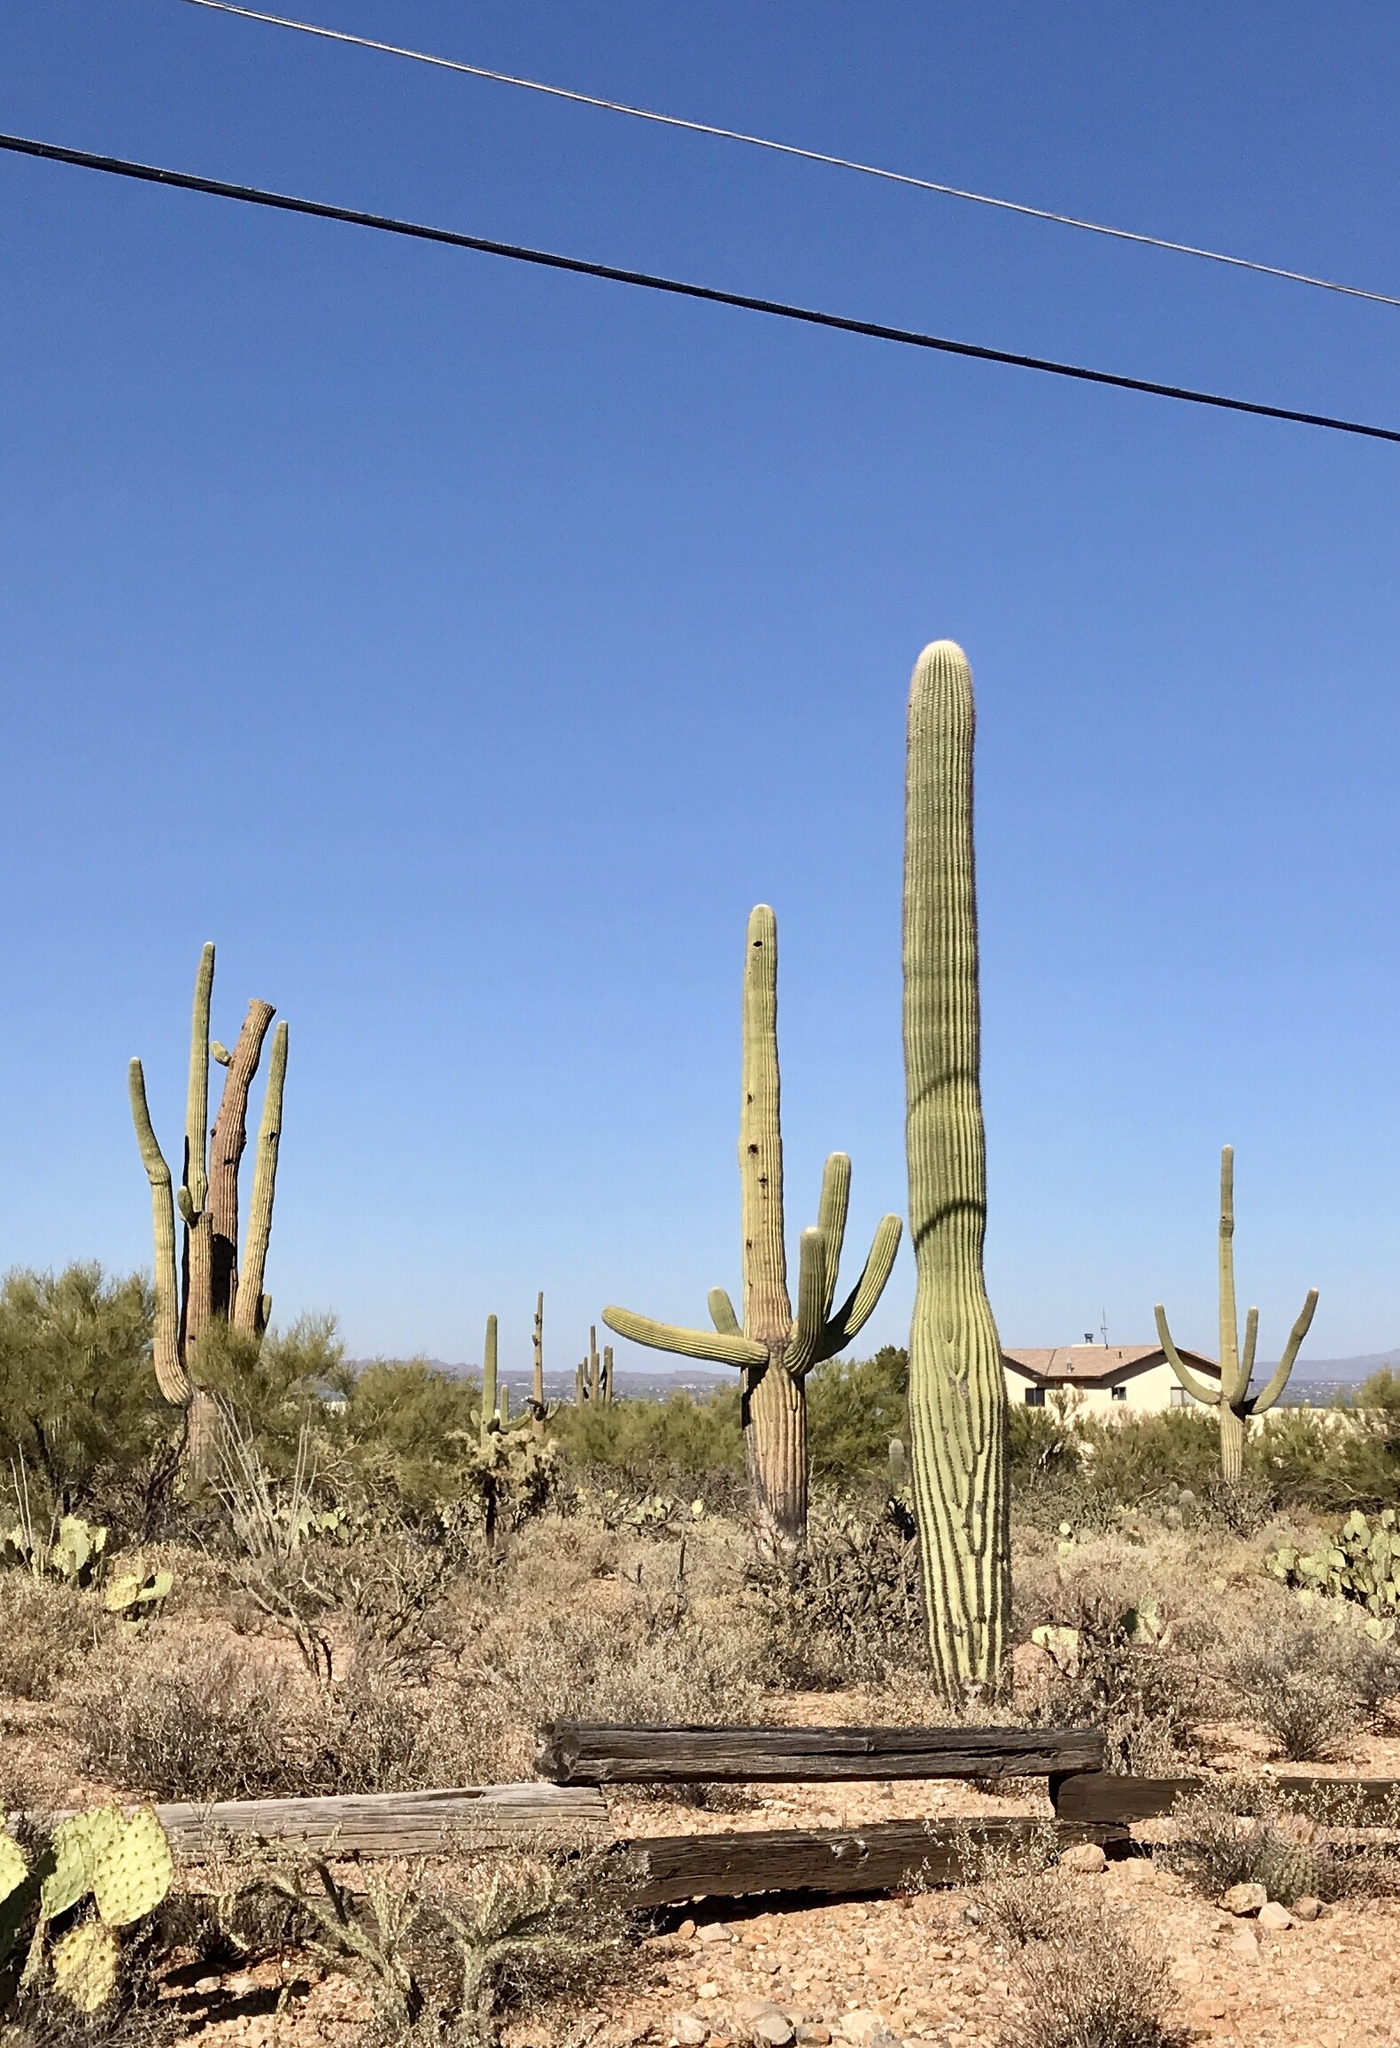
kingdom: Plantae
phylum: Tracheophyta
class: Magnoliopsida
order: Caryophyllales
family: Cactaceae
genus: Carnegiea
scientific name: Carnegiea gigantea
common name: Saguaro
